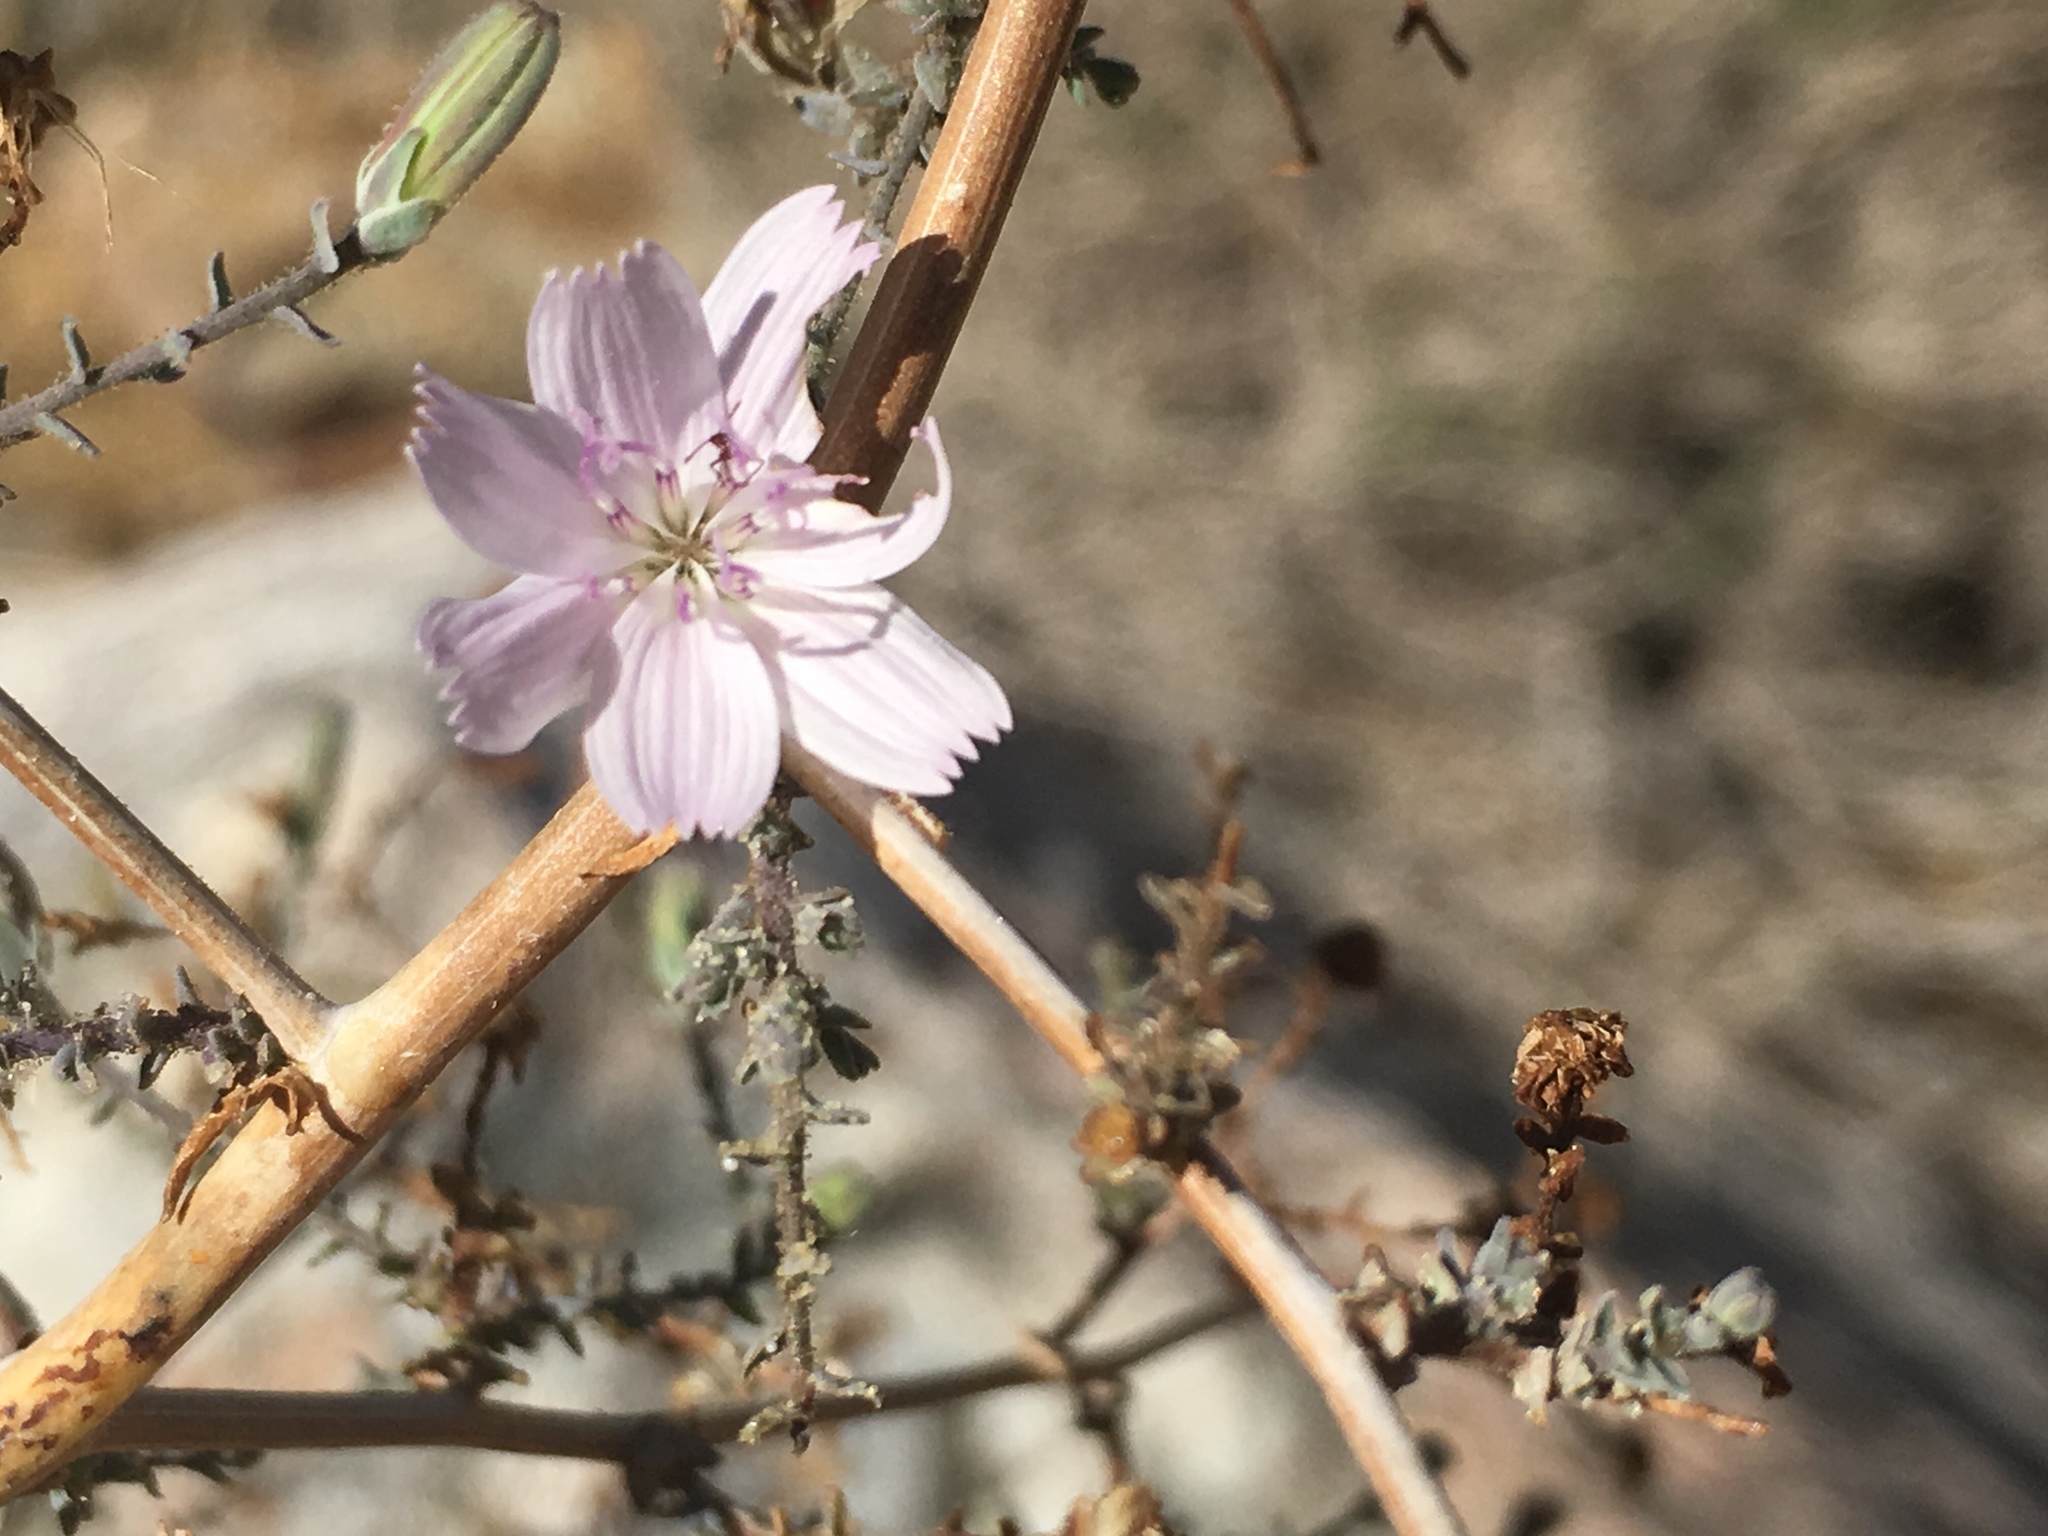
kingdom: Plantae
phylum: Tracheophyta
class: Magnoliopsida
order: Asterales
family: Asteraceae
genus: Stephanomeria
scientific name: Stephanomeria exigua
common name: Small wirelettuce
